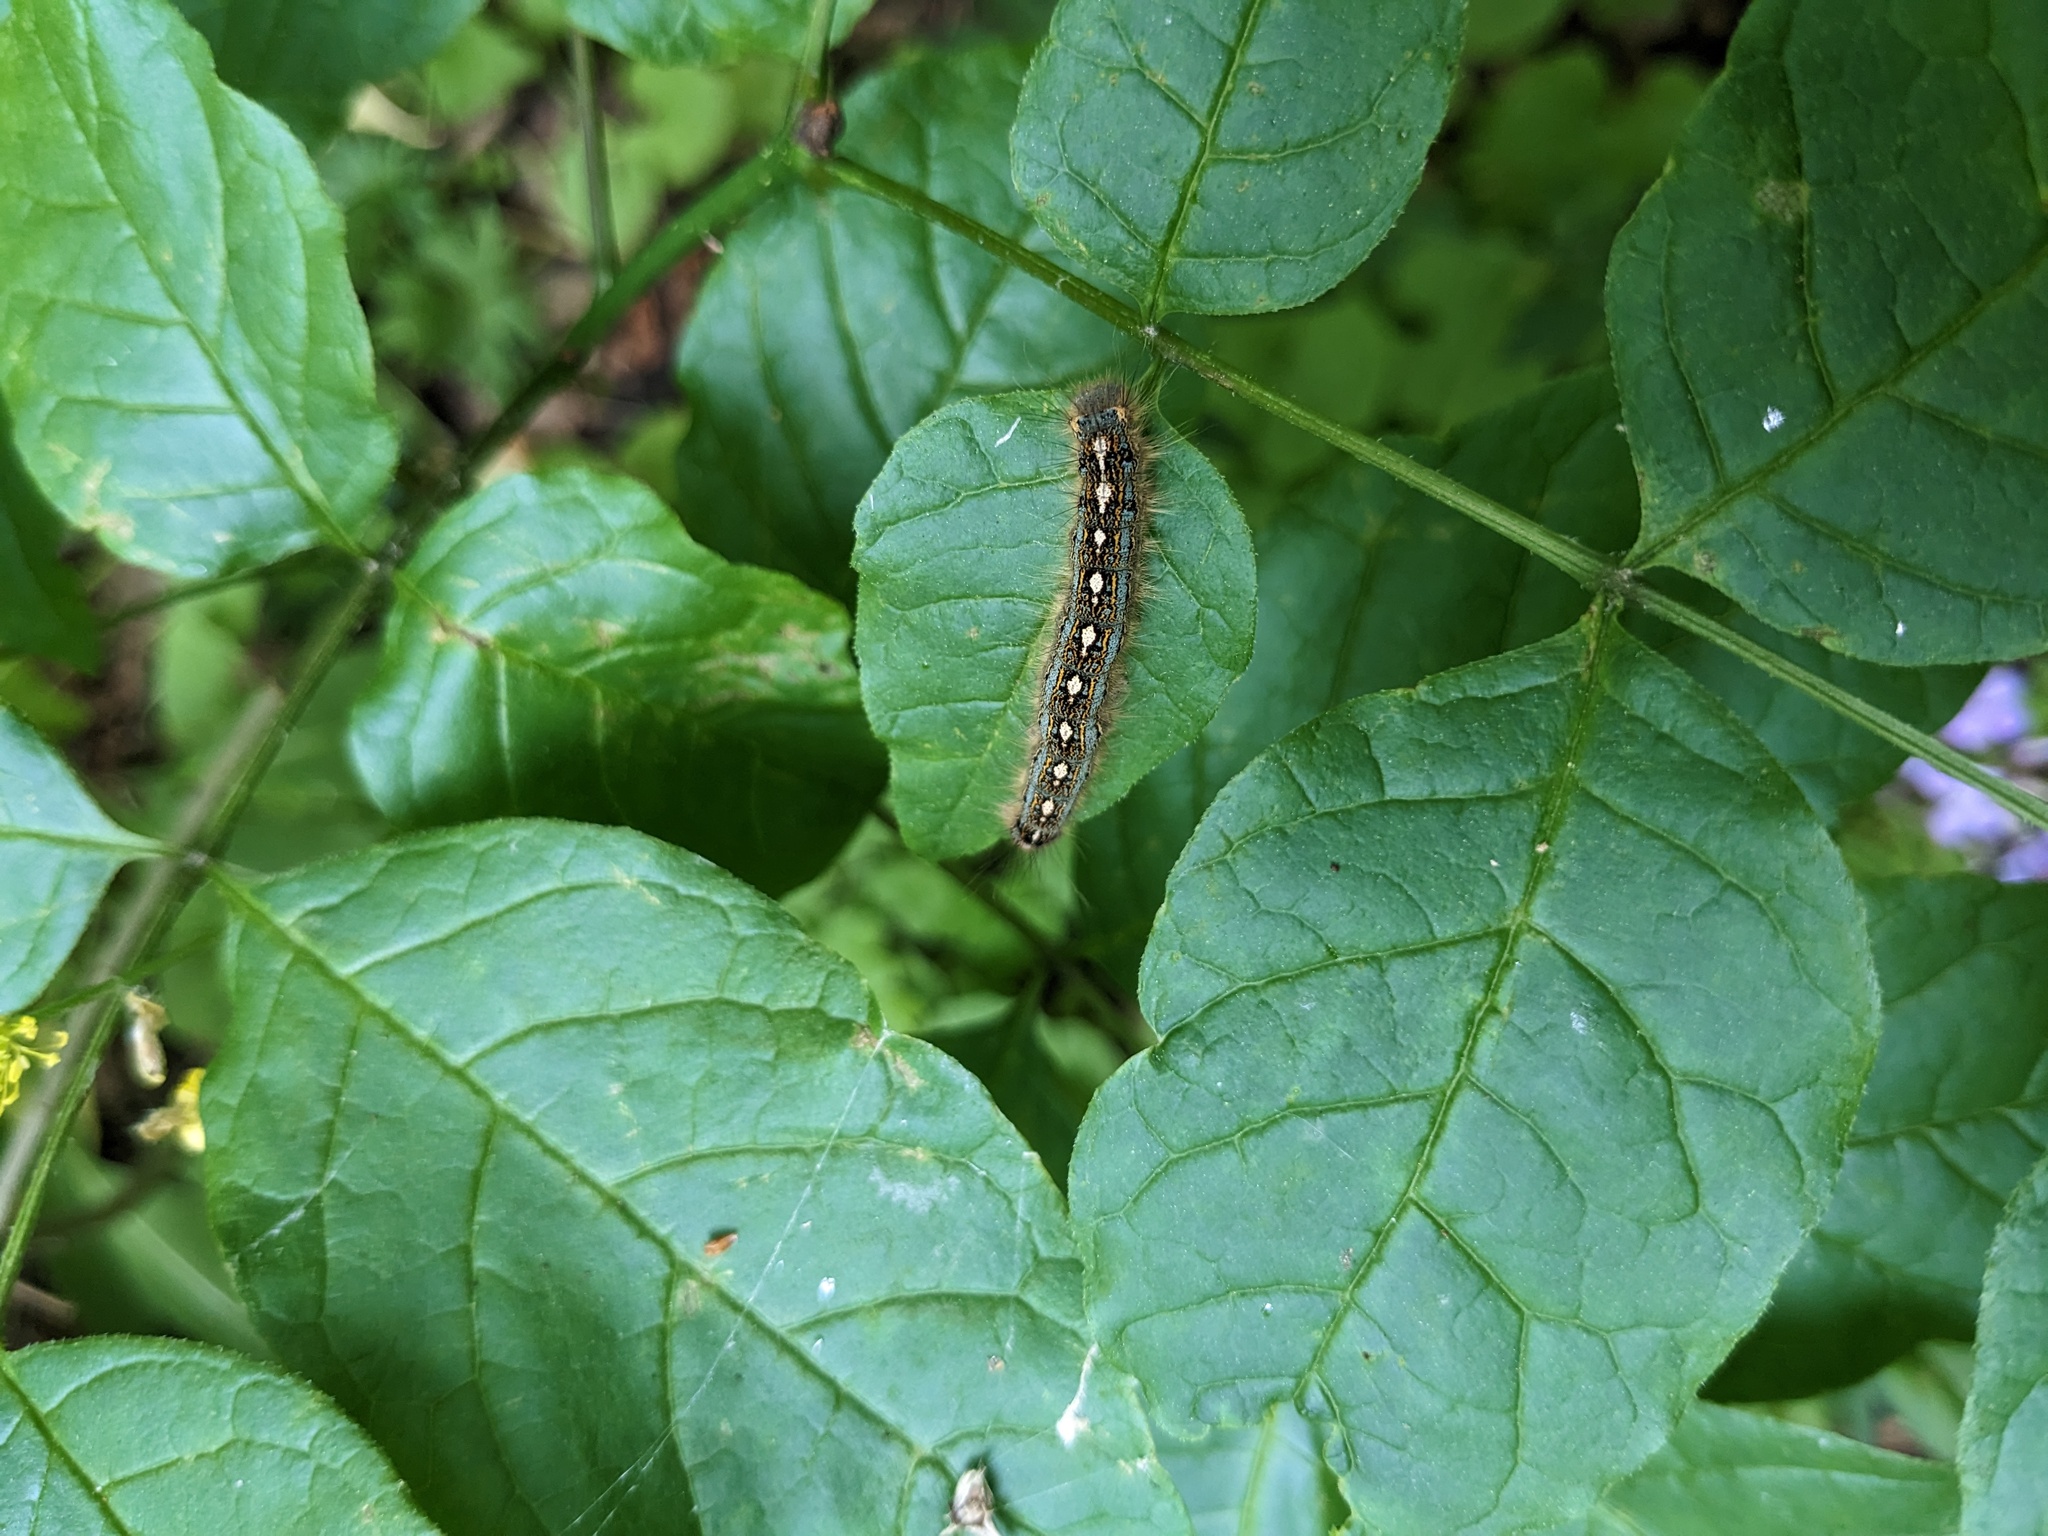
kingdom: Animalia
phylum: Arthropoda
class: Insecta
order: Lepidoptera
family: Lasiocampidae
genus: Malacosoma
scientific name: Malacosoma disstria
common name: Forest tent caterpillar
